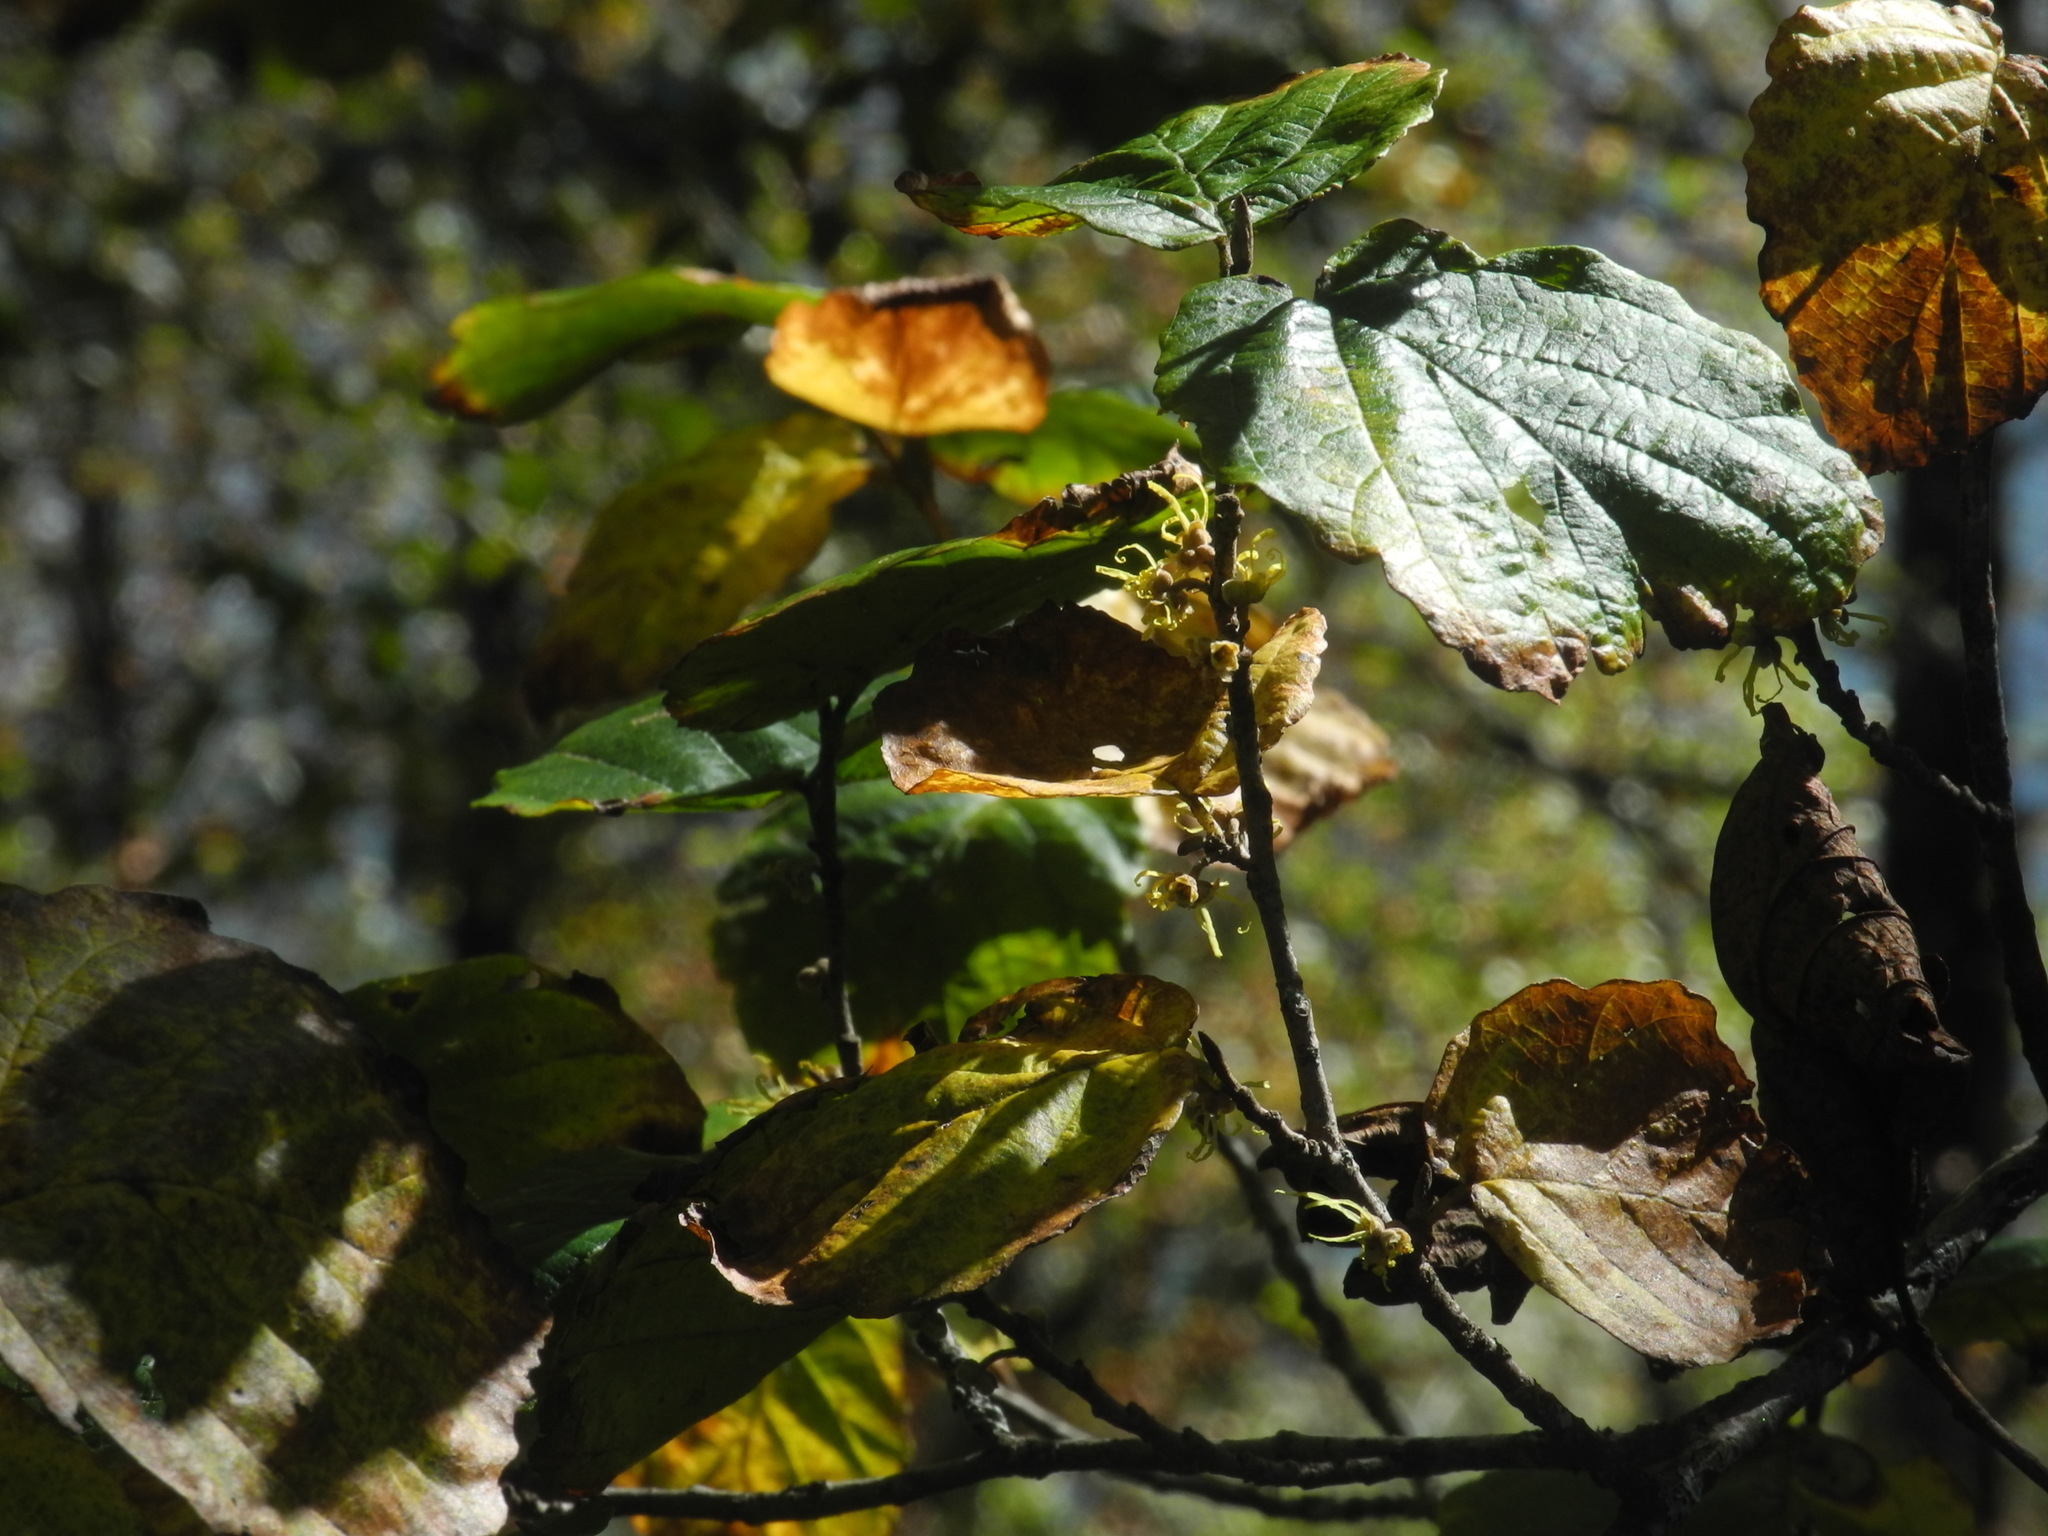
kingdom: Plantae
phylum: Tracheophyta
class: Magnoliopsida
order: Saxifragales
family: Hamamelidaceae
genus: Hamamelis
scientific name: Hamamelis virginiana
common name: Witch-hazel
